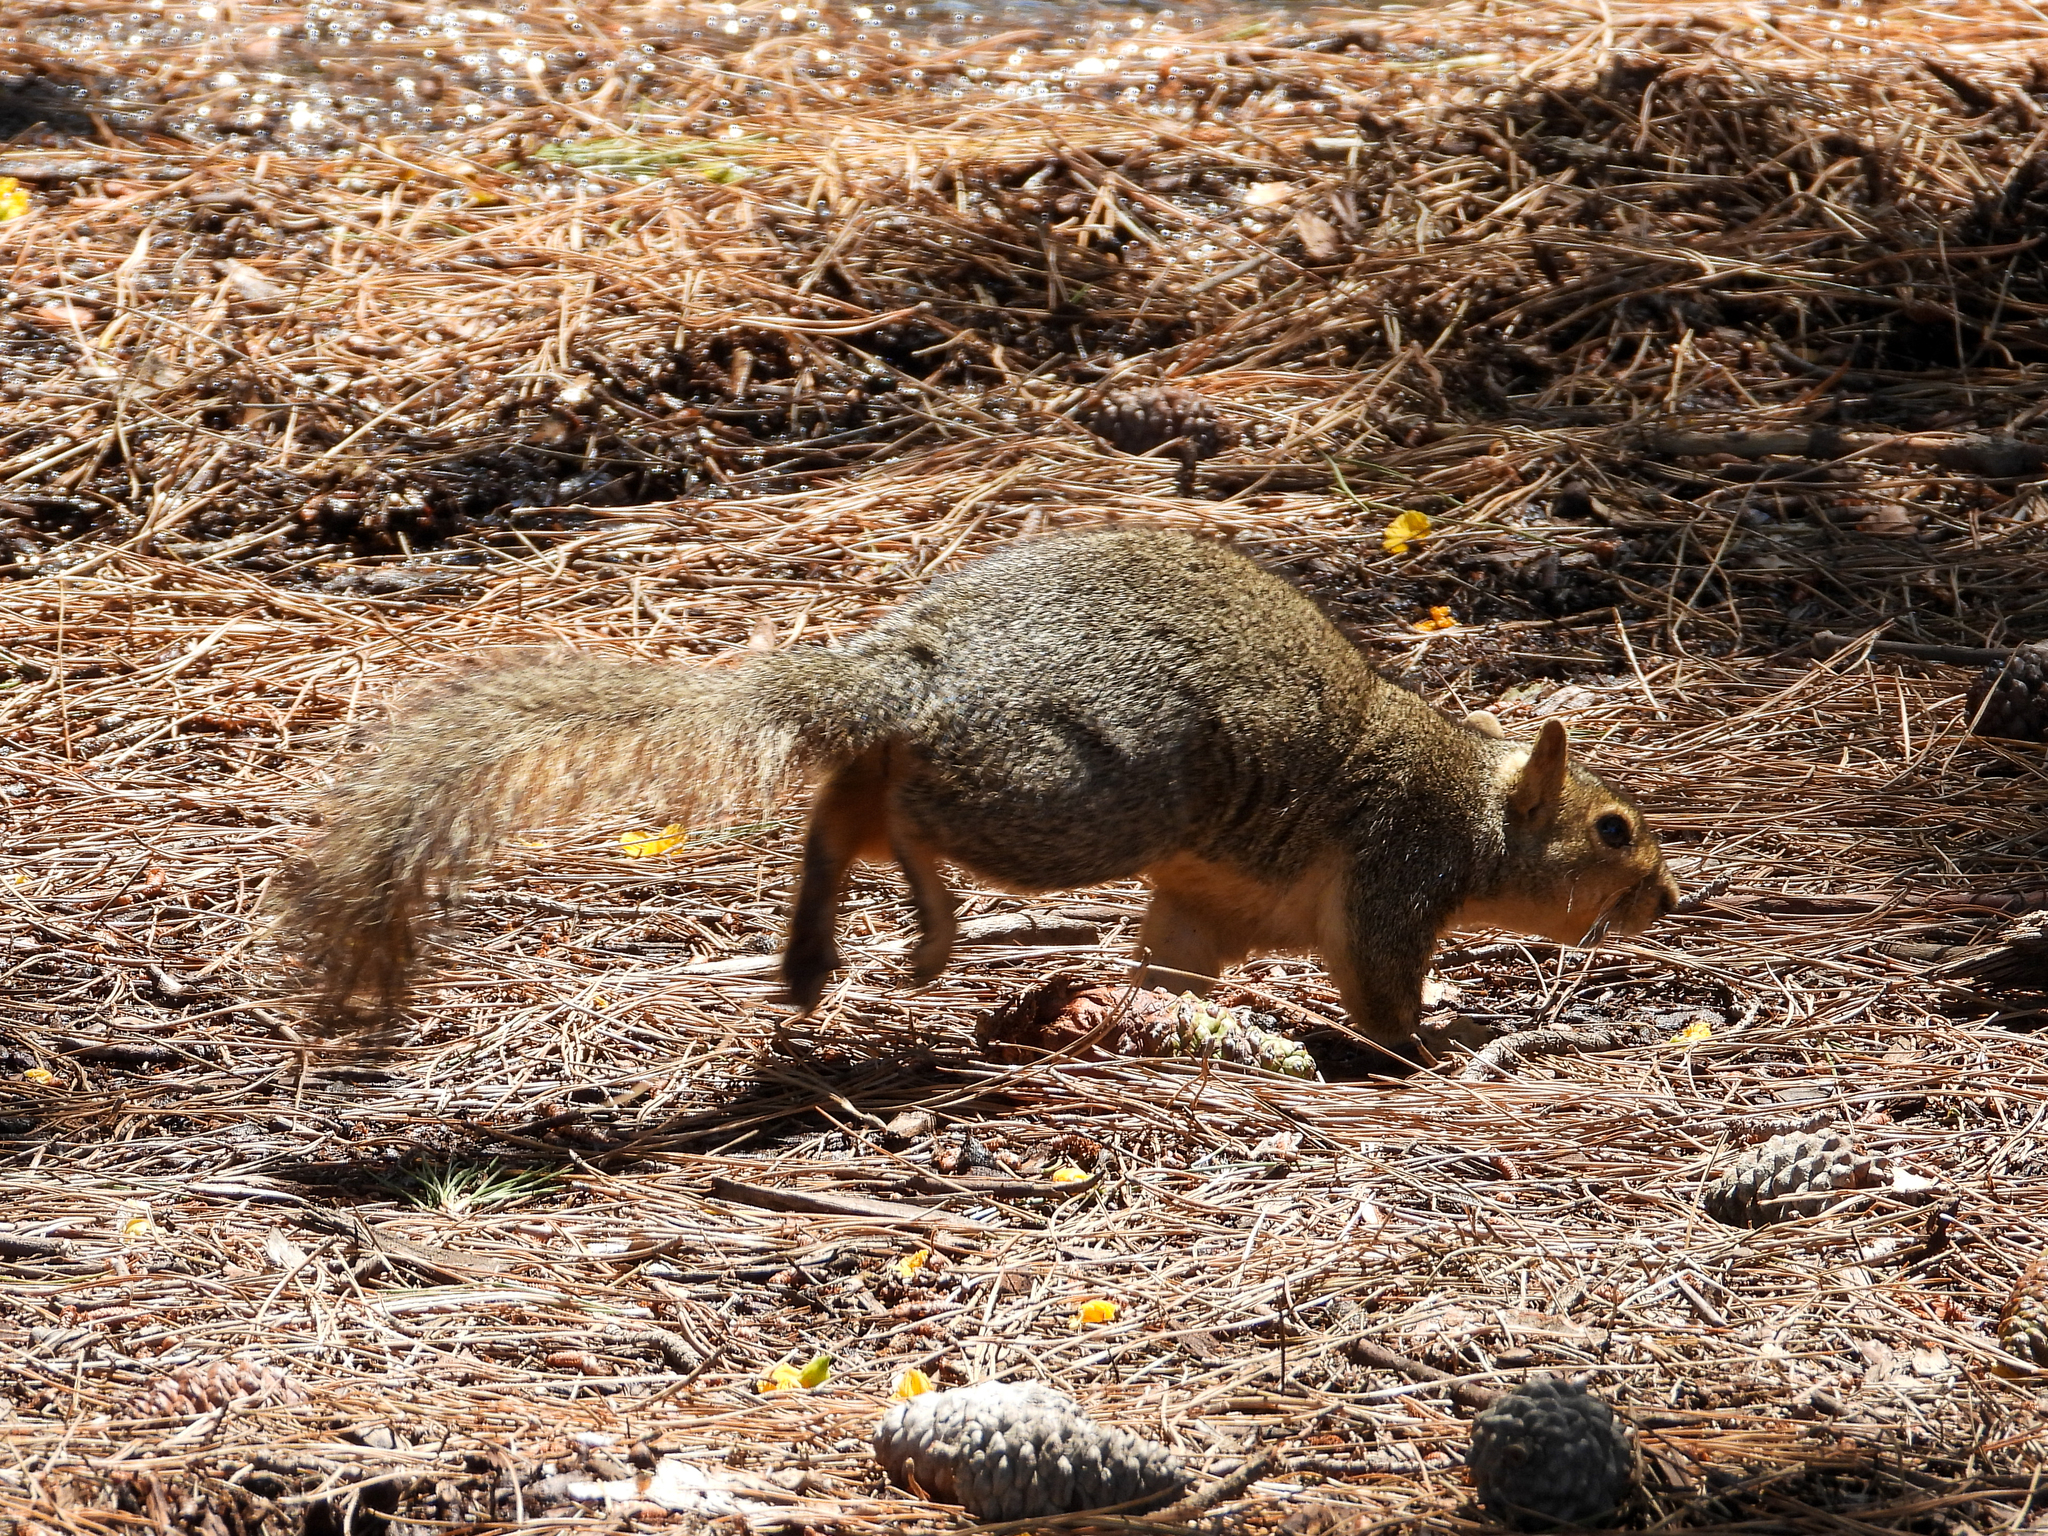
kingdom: Animalia
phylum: Chordata
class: Mammalia
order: Rodentia
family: Sciuridae
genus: Sciurus
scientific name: Sciurus niger
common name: Fox squirrel
